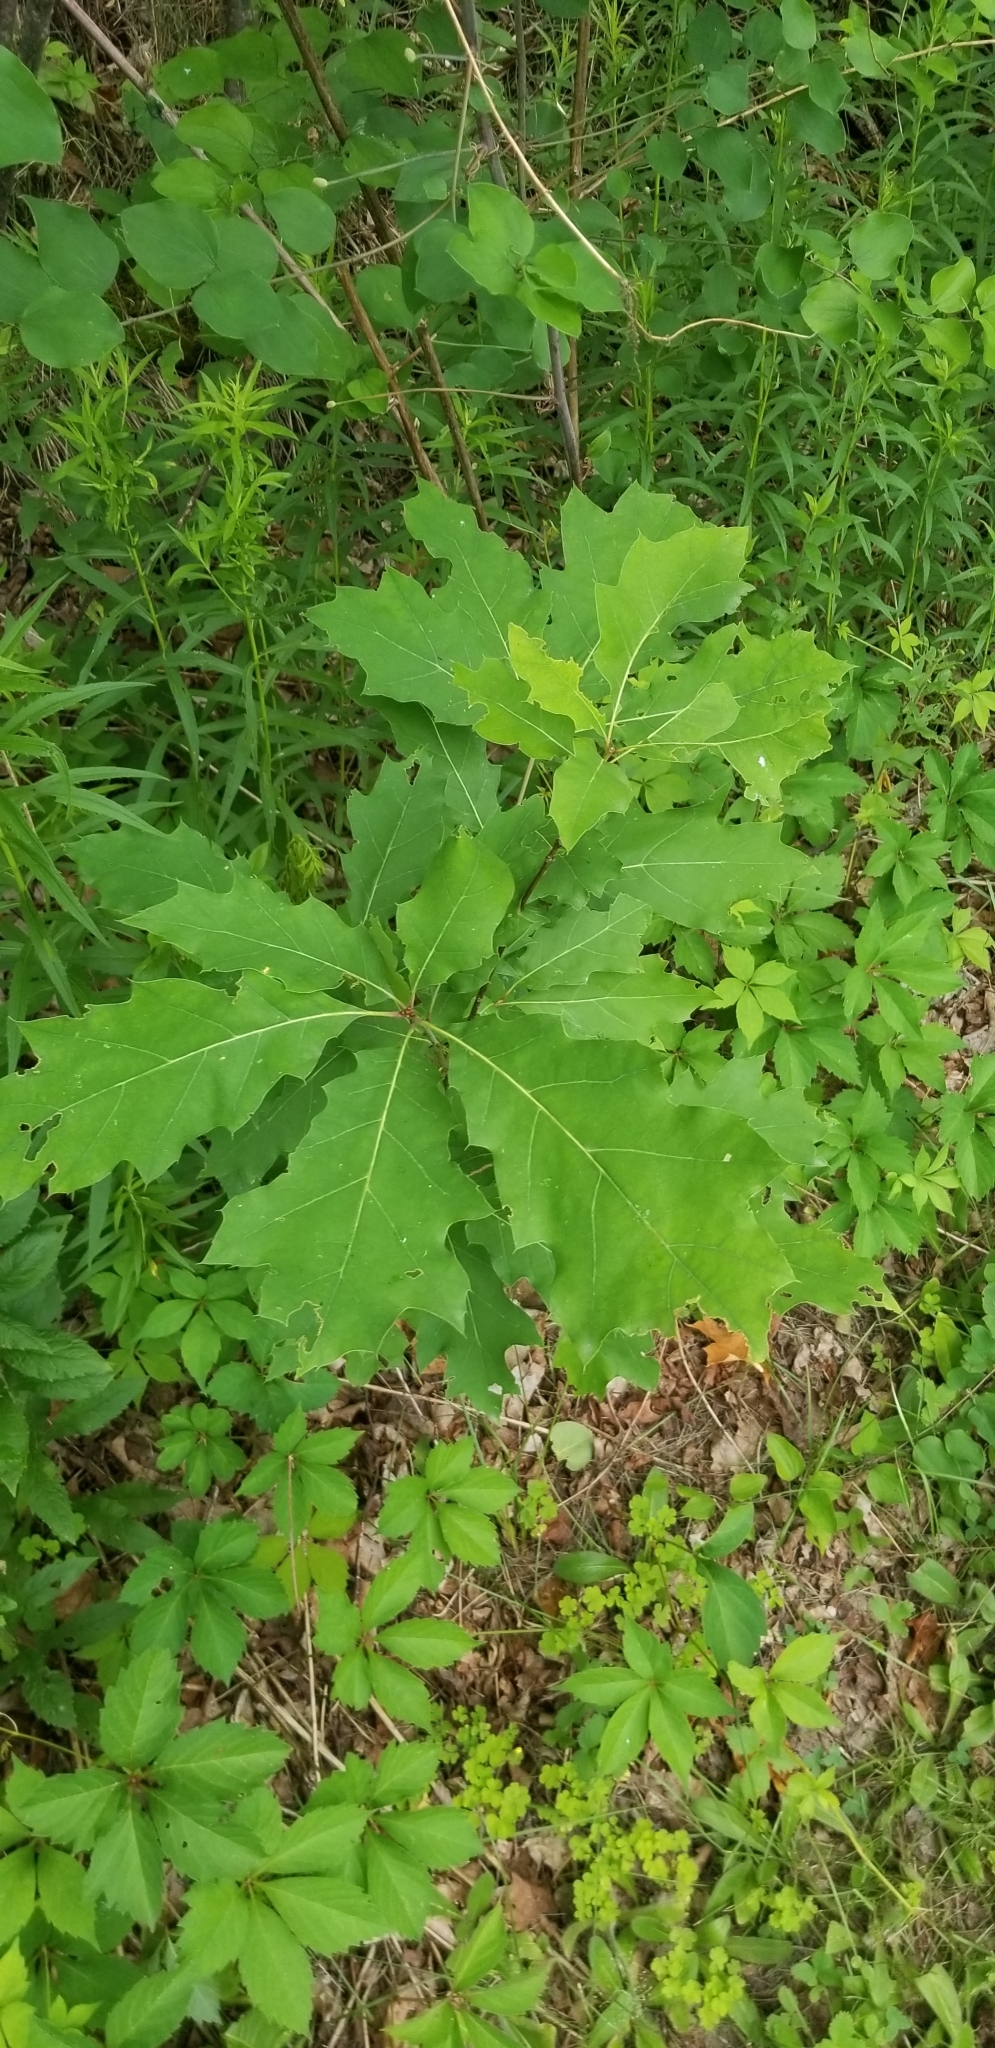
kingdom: Plantae
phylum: Tracheophyta
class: Magnoliopsida
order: Fagales
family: Fagaceae
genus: Quercus
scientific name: Quercus rubra
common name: Red oak
